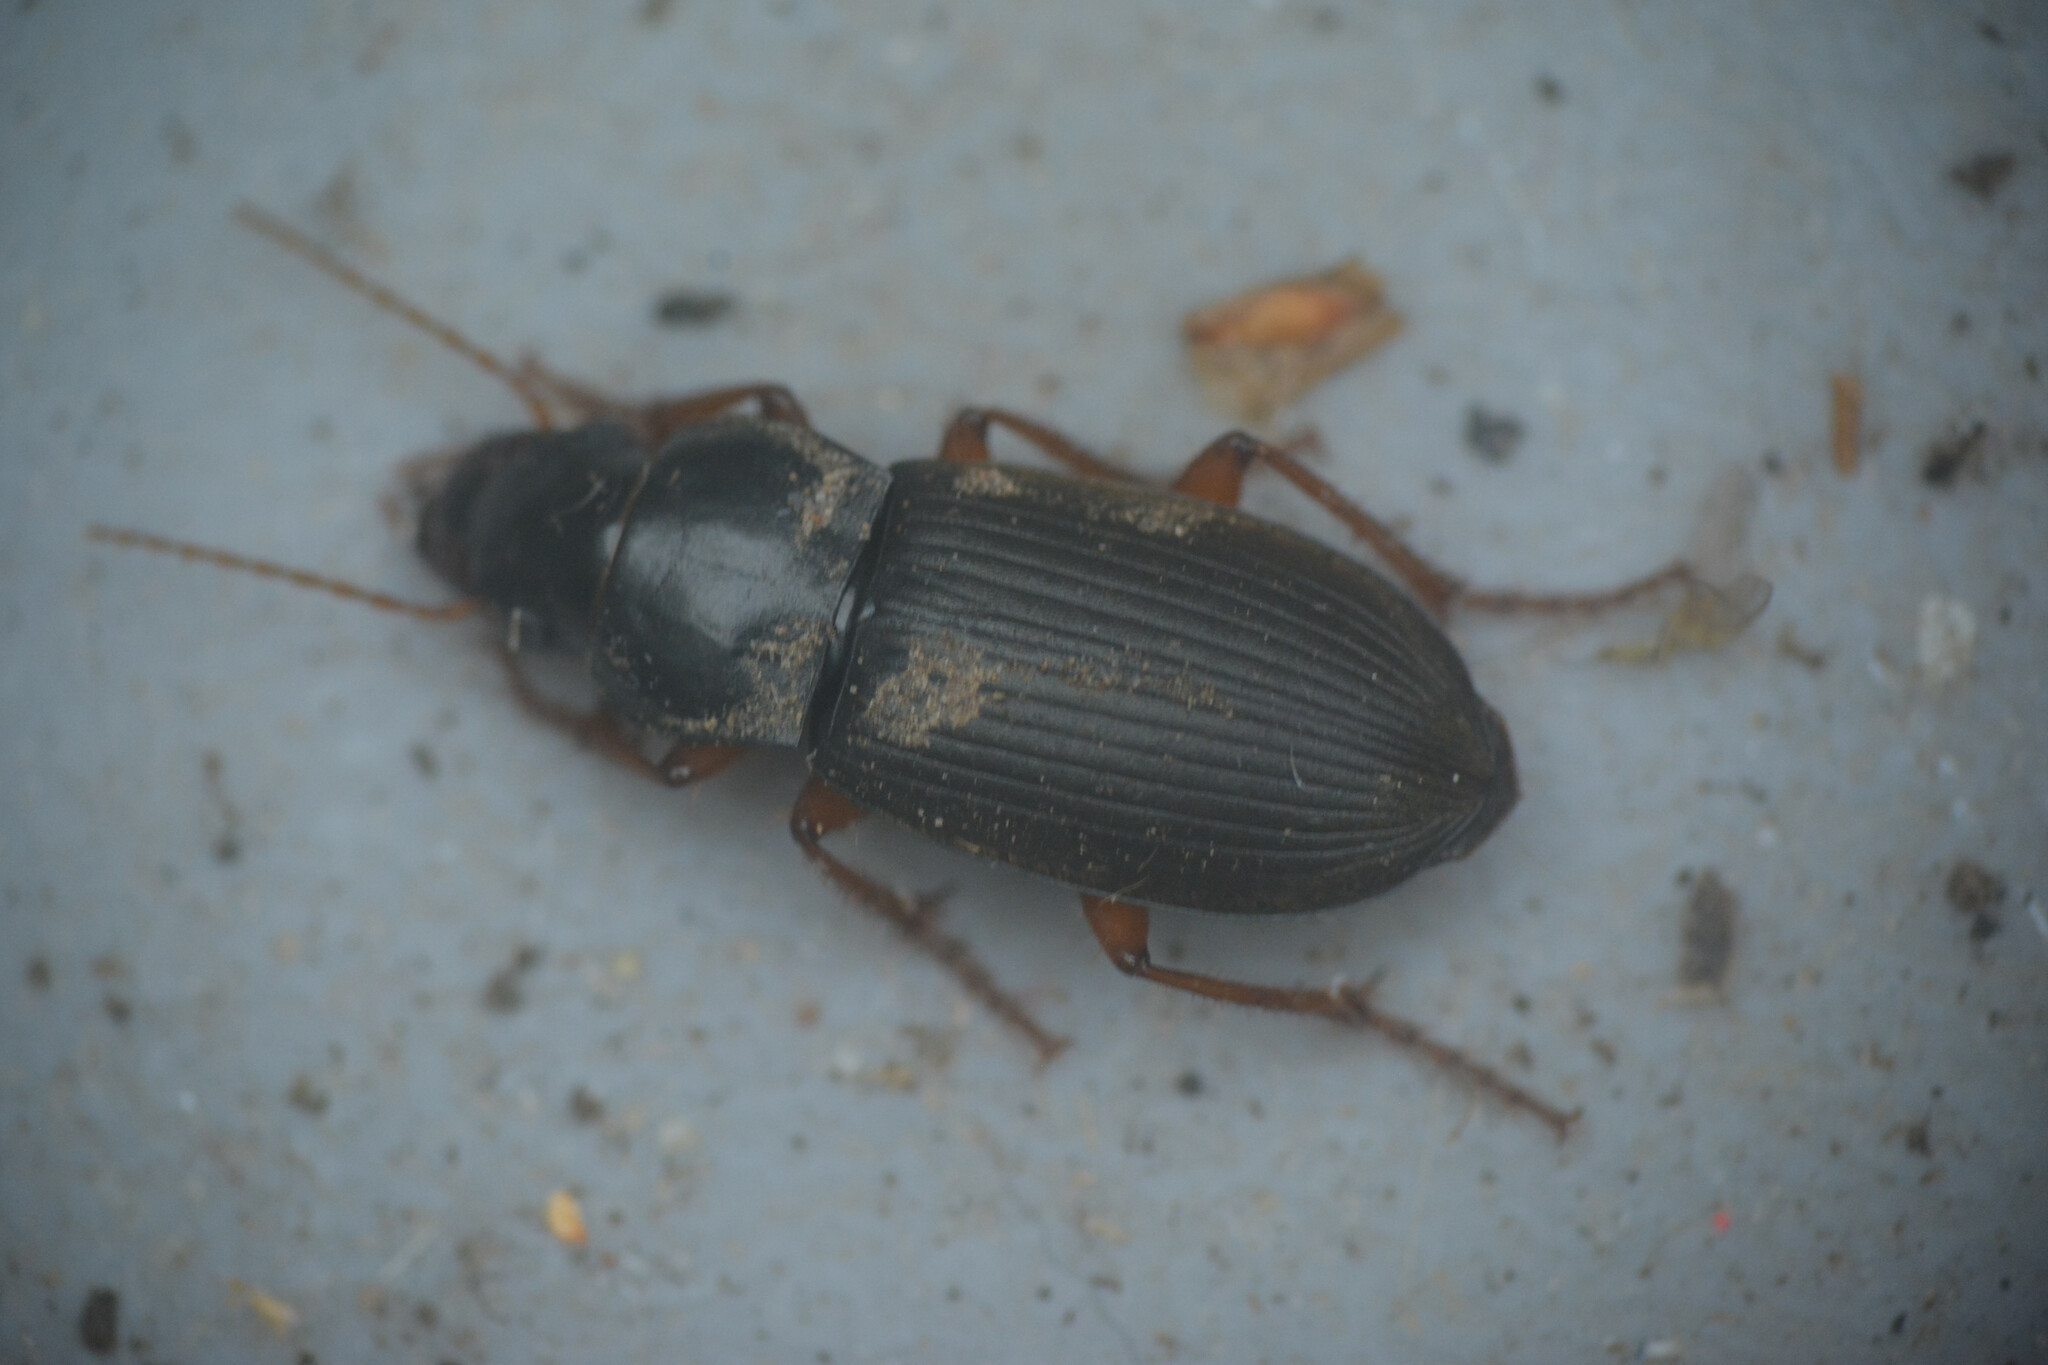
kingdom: Animalia
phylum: Arthropoda
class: Insecta
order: Coleoptera
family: Carabidae
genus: Harpalus
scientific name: Harpalus rufipes
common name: Strawberry harp ground beetle
